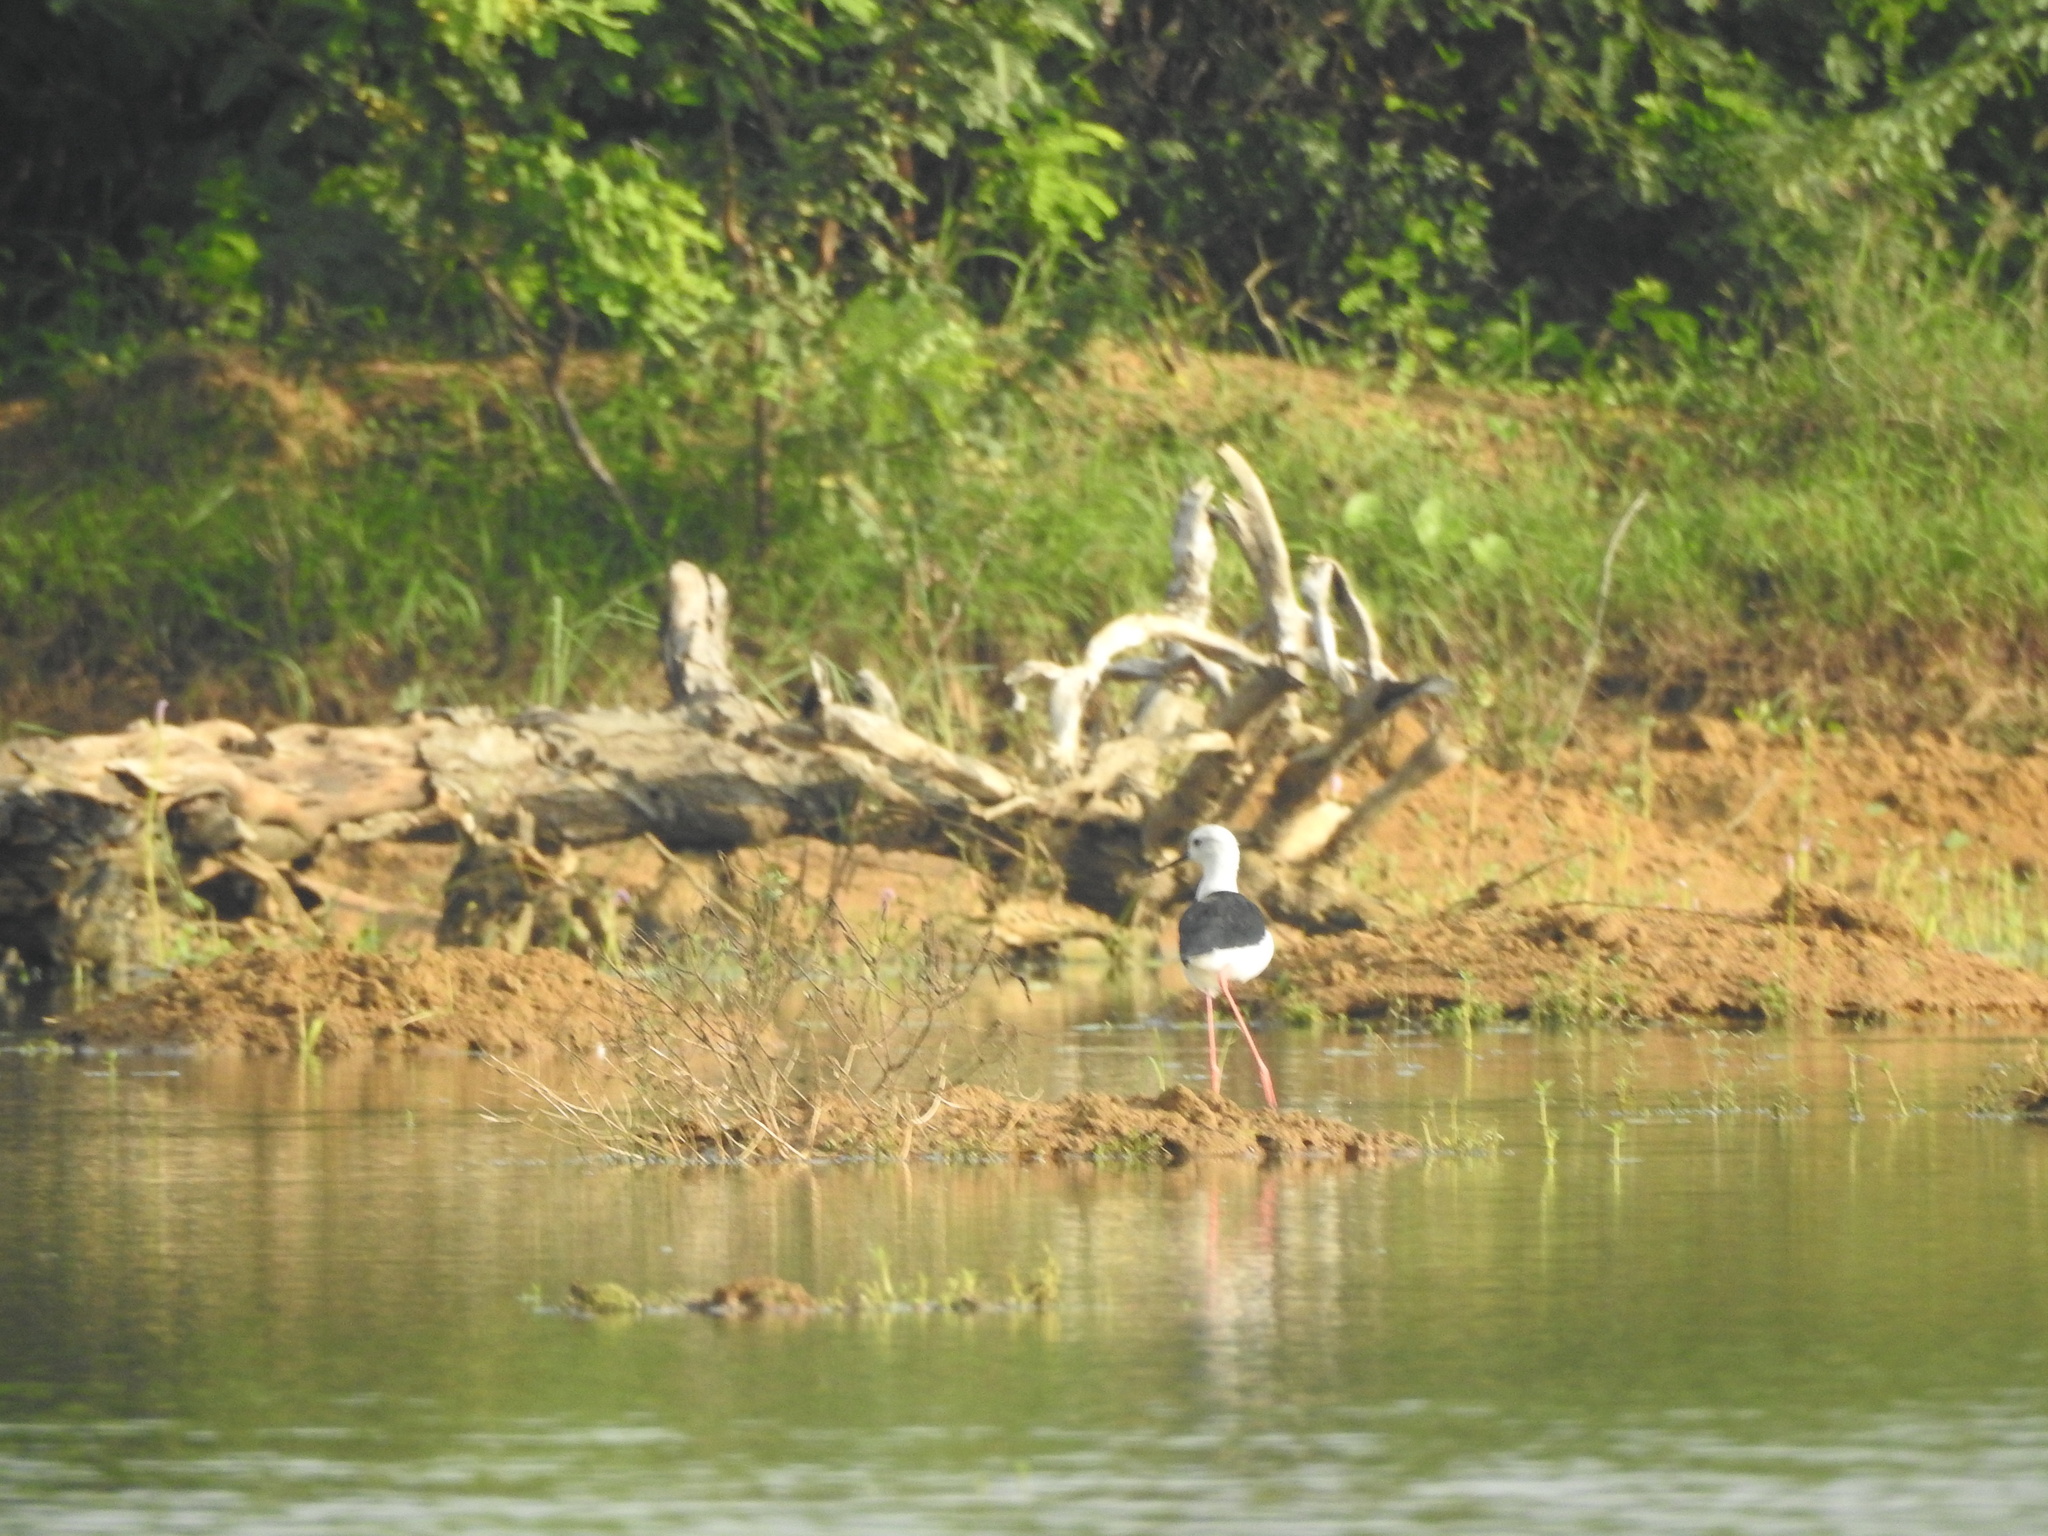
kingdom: Animalia
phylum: Chordata
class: Aves
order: Charadriiformes
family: Recurvirostridae
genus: Himantopus
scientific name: Himantopus himantopus
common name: Black-winged stilt
